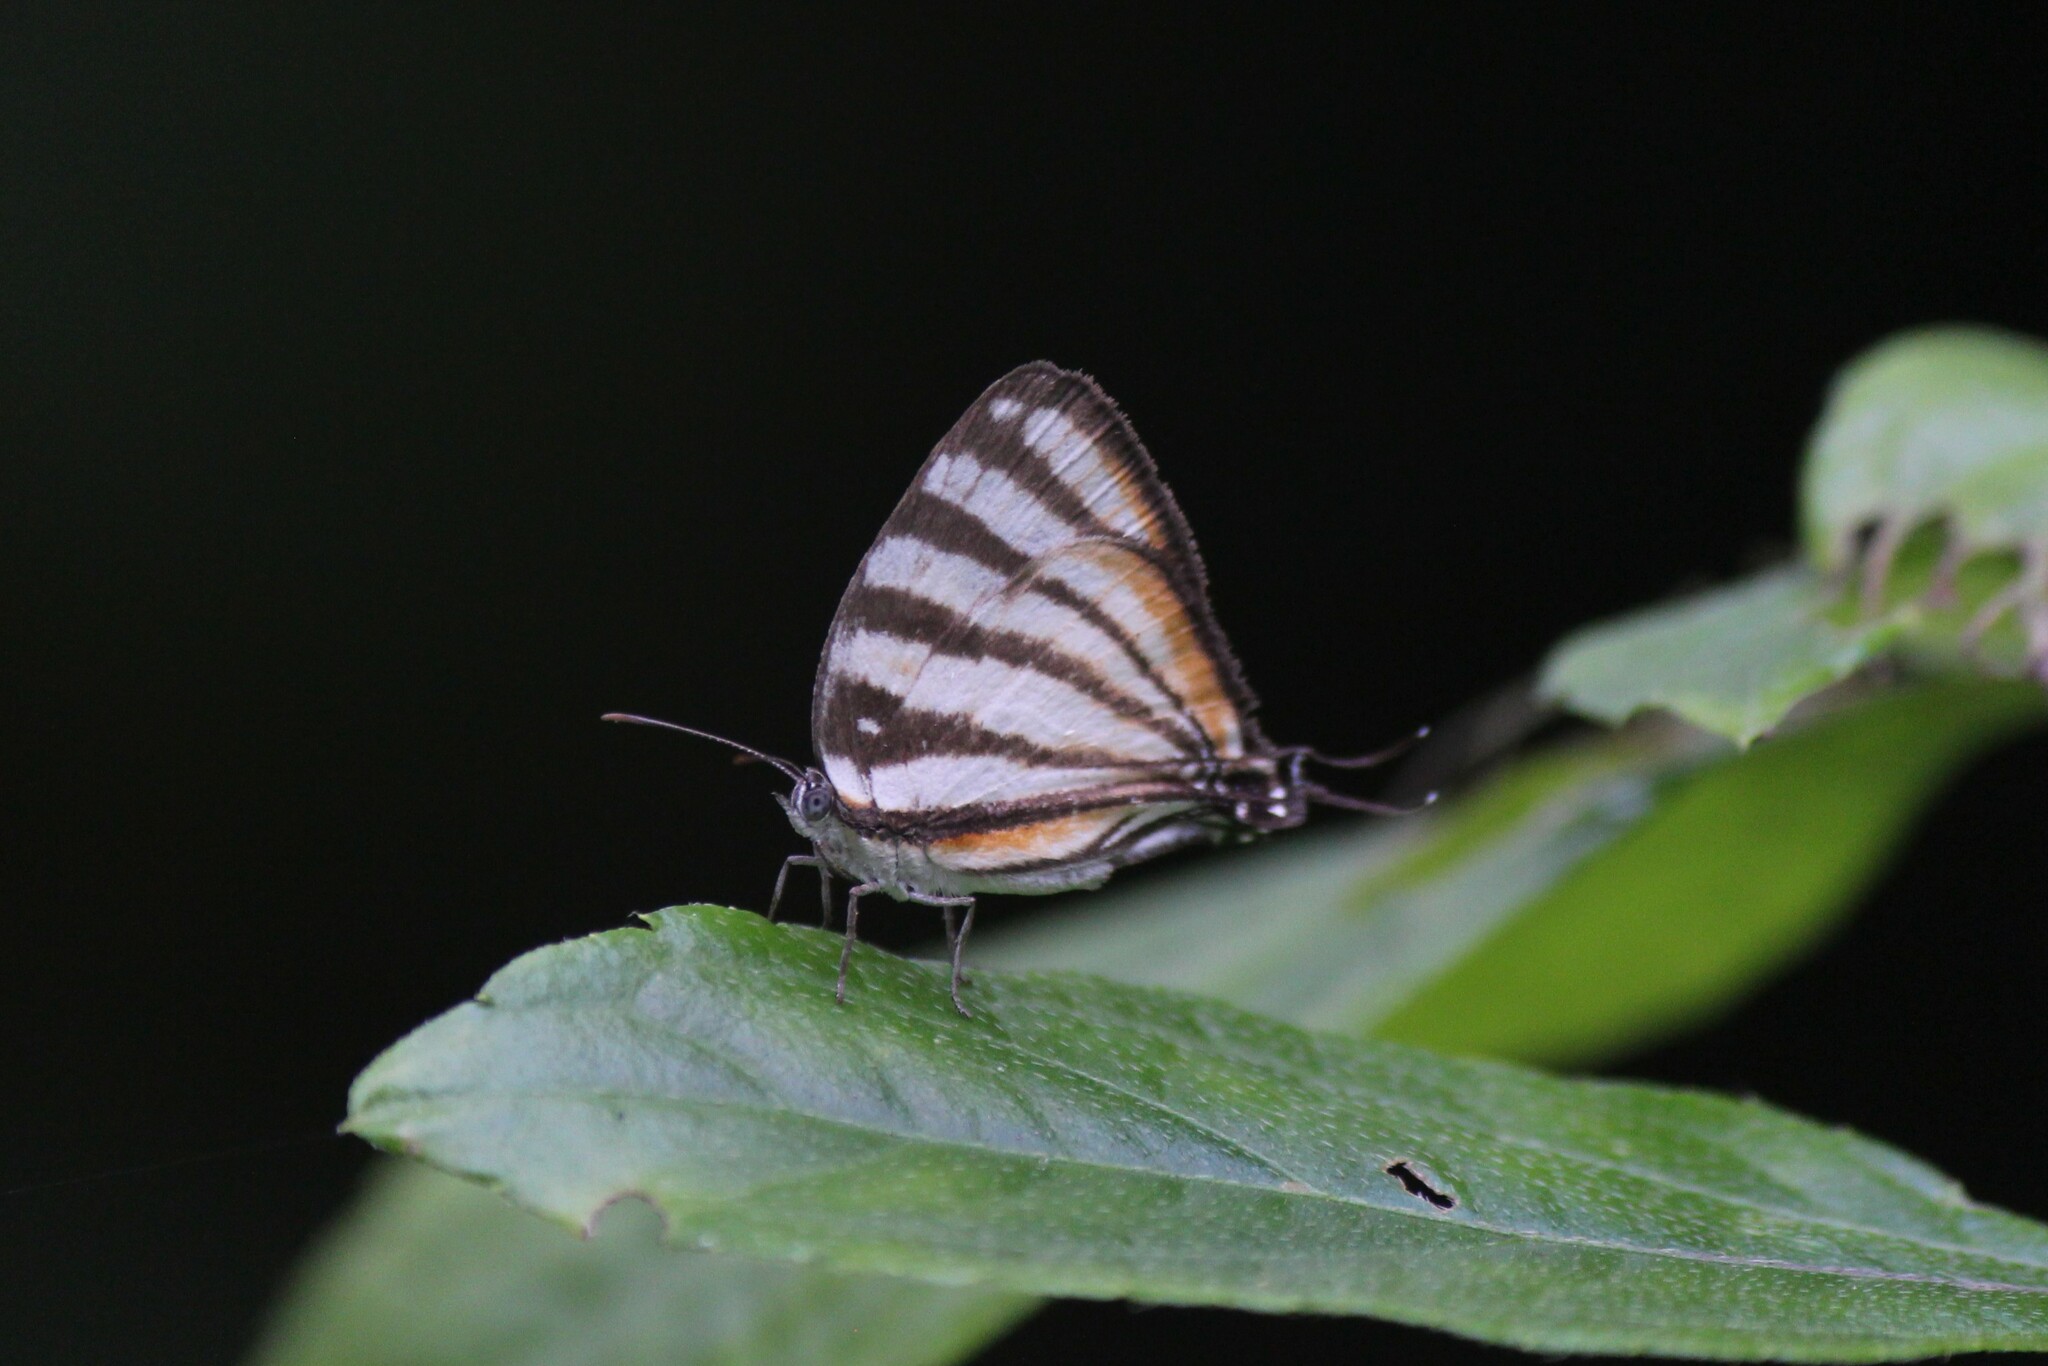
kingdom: Animalia
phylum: Arthropoda
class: Insecta
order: Lepidoptera
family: Lycaenidae
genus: Arawacus
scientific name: Arawacus lincoides
